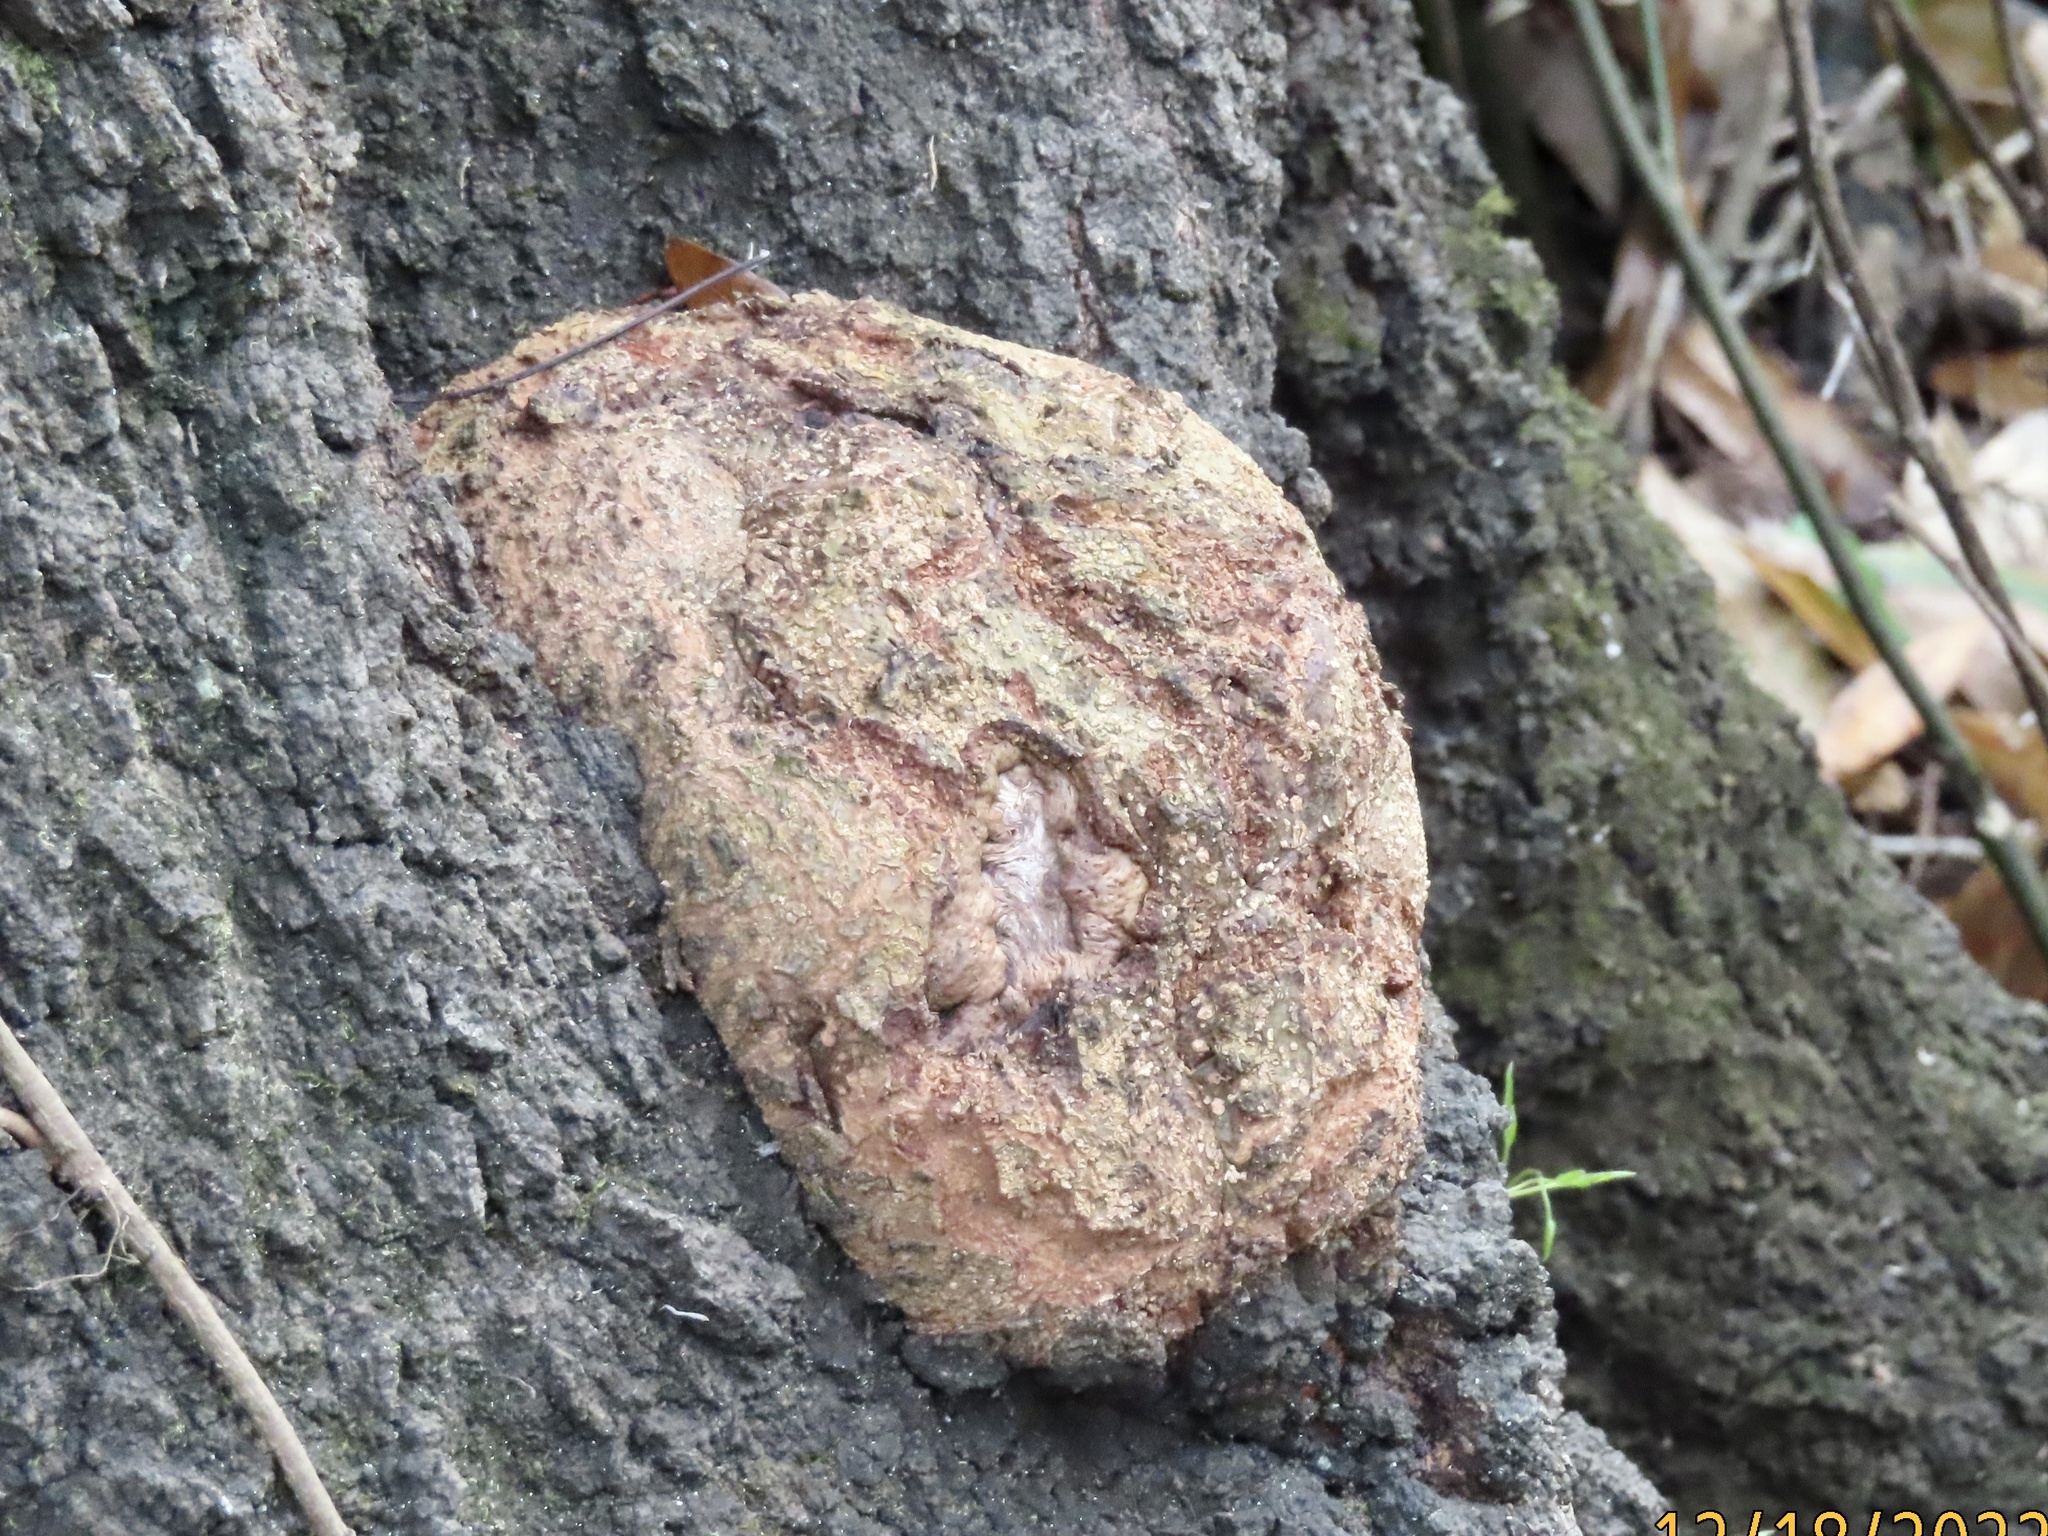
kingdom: Bacteria
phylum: Proteobacteria
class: Alphaproteobacteria
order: Rhizobiales
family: Rhizobiaceae
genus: Rhizobium
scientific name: Rhizobium Agrobacterium radiobacter
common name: Bacterial crown gall
